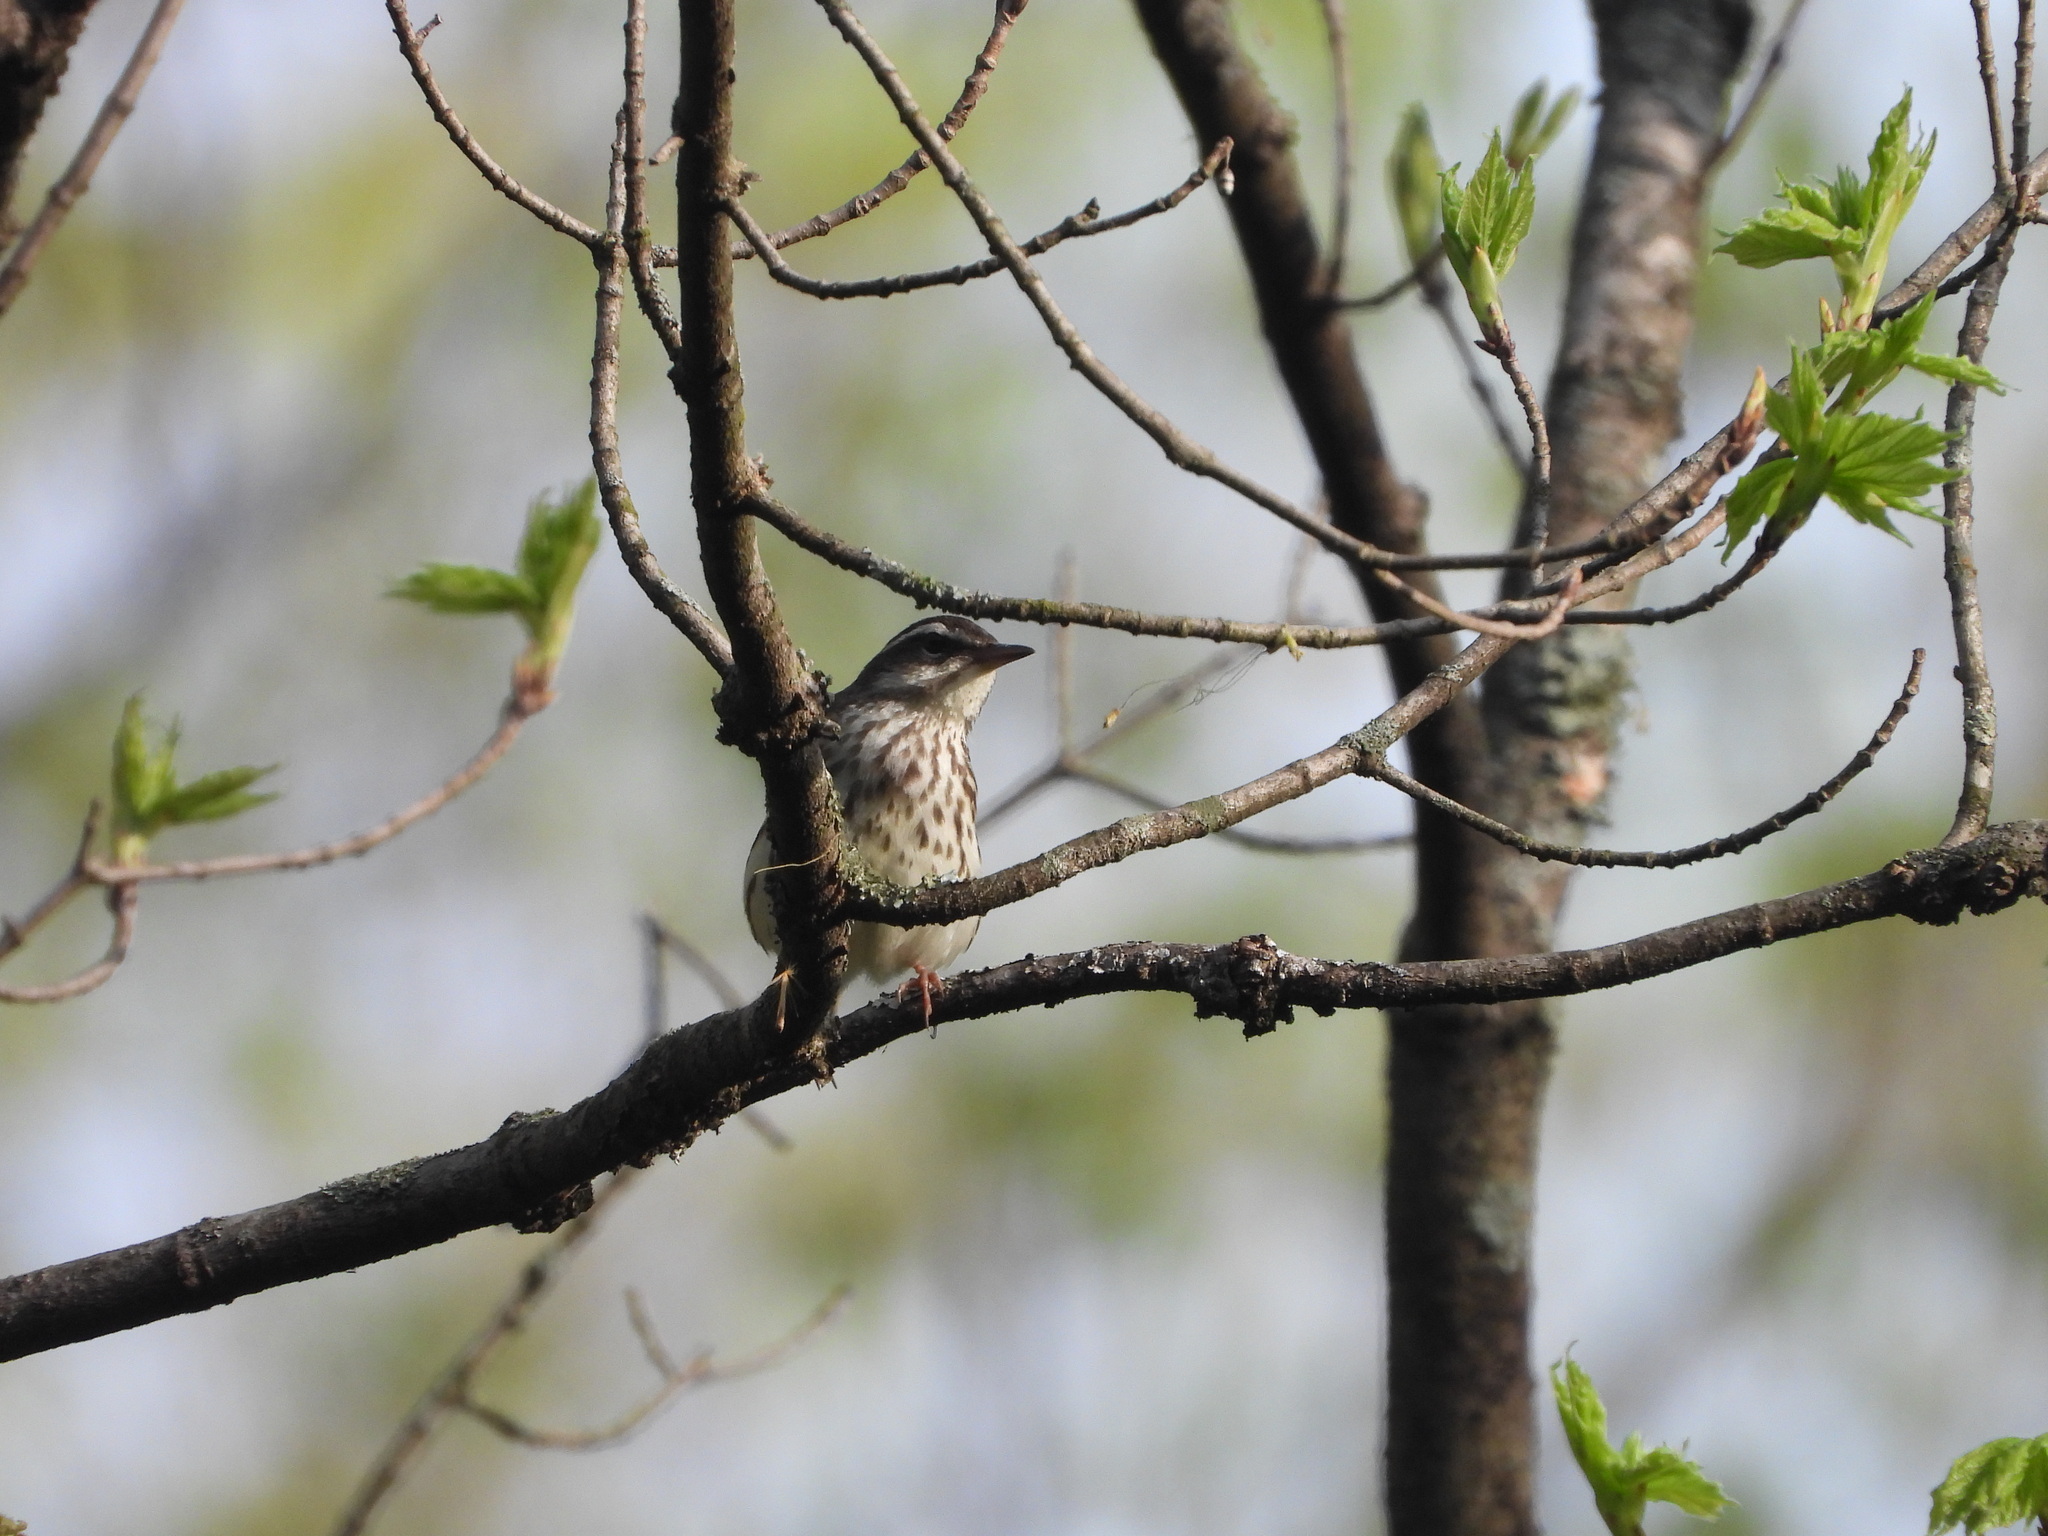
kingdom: Animalia
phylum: Chordata
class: Aves
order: Passeriformes
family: Parulidae
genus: Parkesia
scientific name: Parkesia motacilla
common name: Louisiana waterthrush
